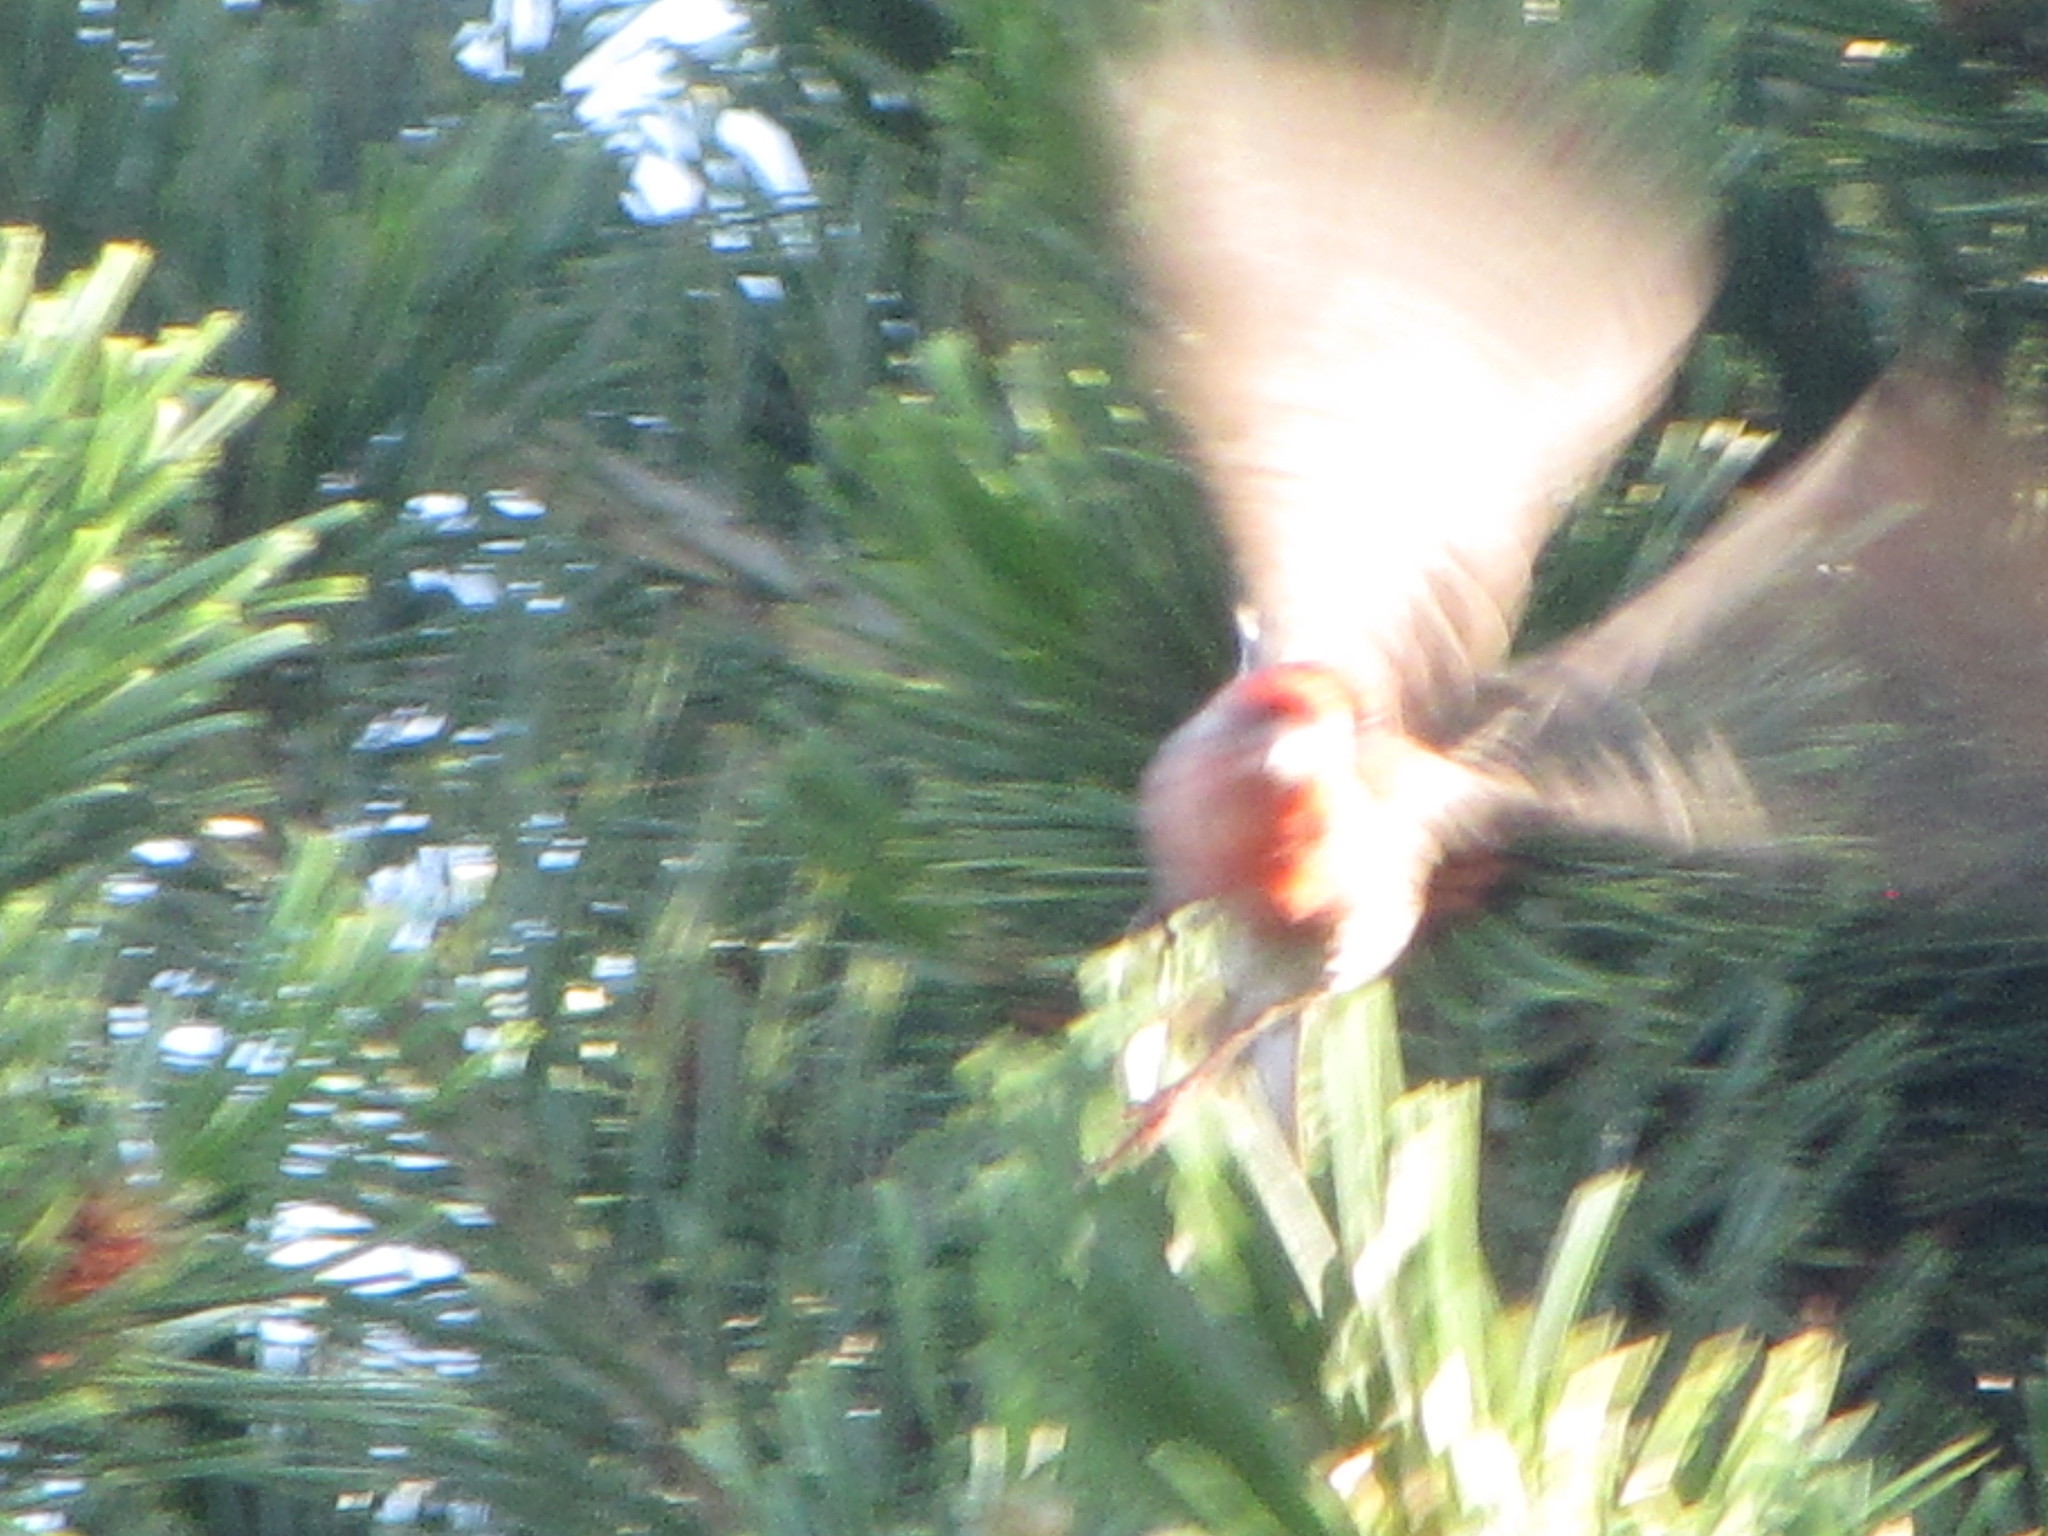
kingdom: Animalia
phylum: Chordata
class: Aves
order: Passeriformes
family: Fringillidae
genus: Haemorhous
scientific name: Haemorhous mexicanus
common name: House finch
